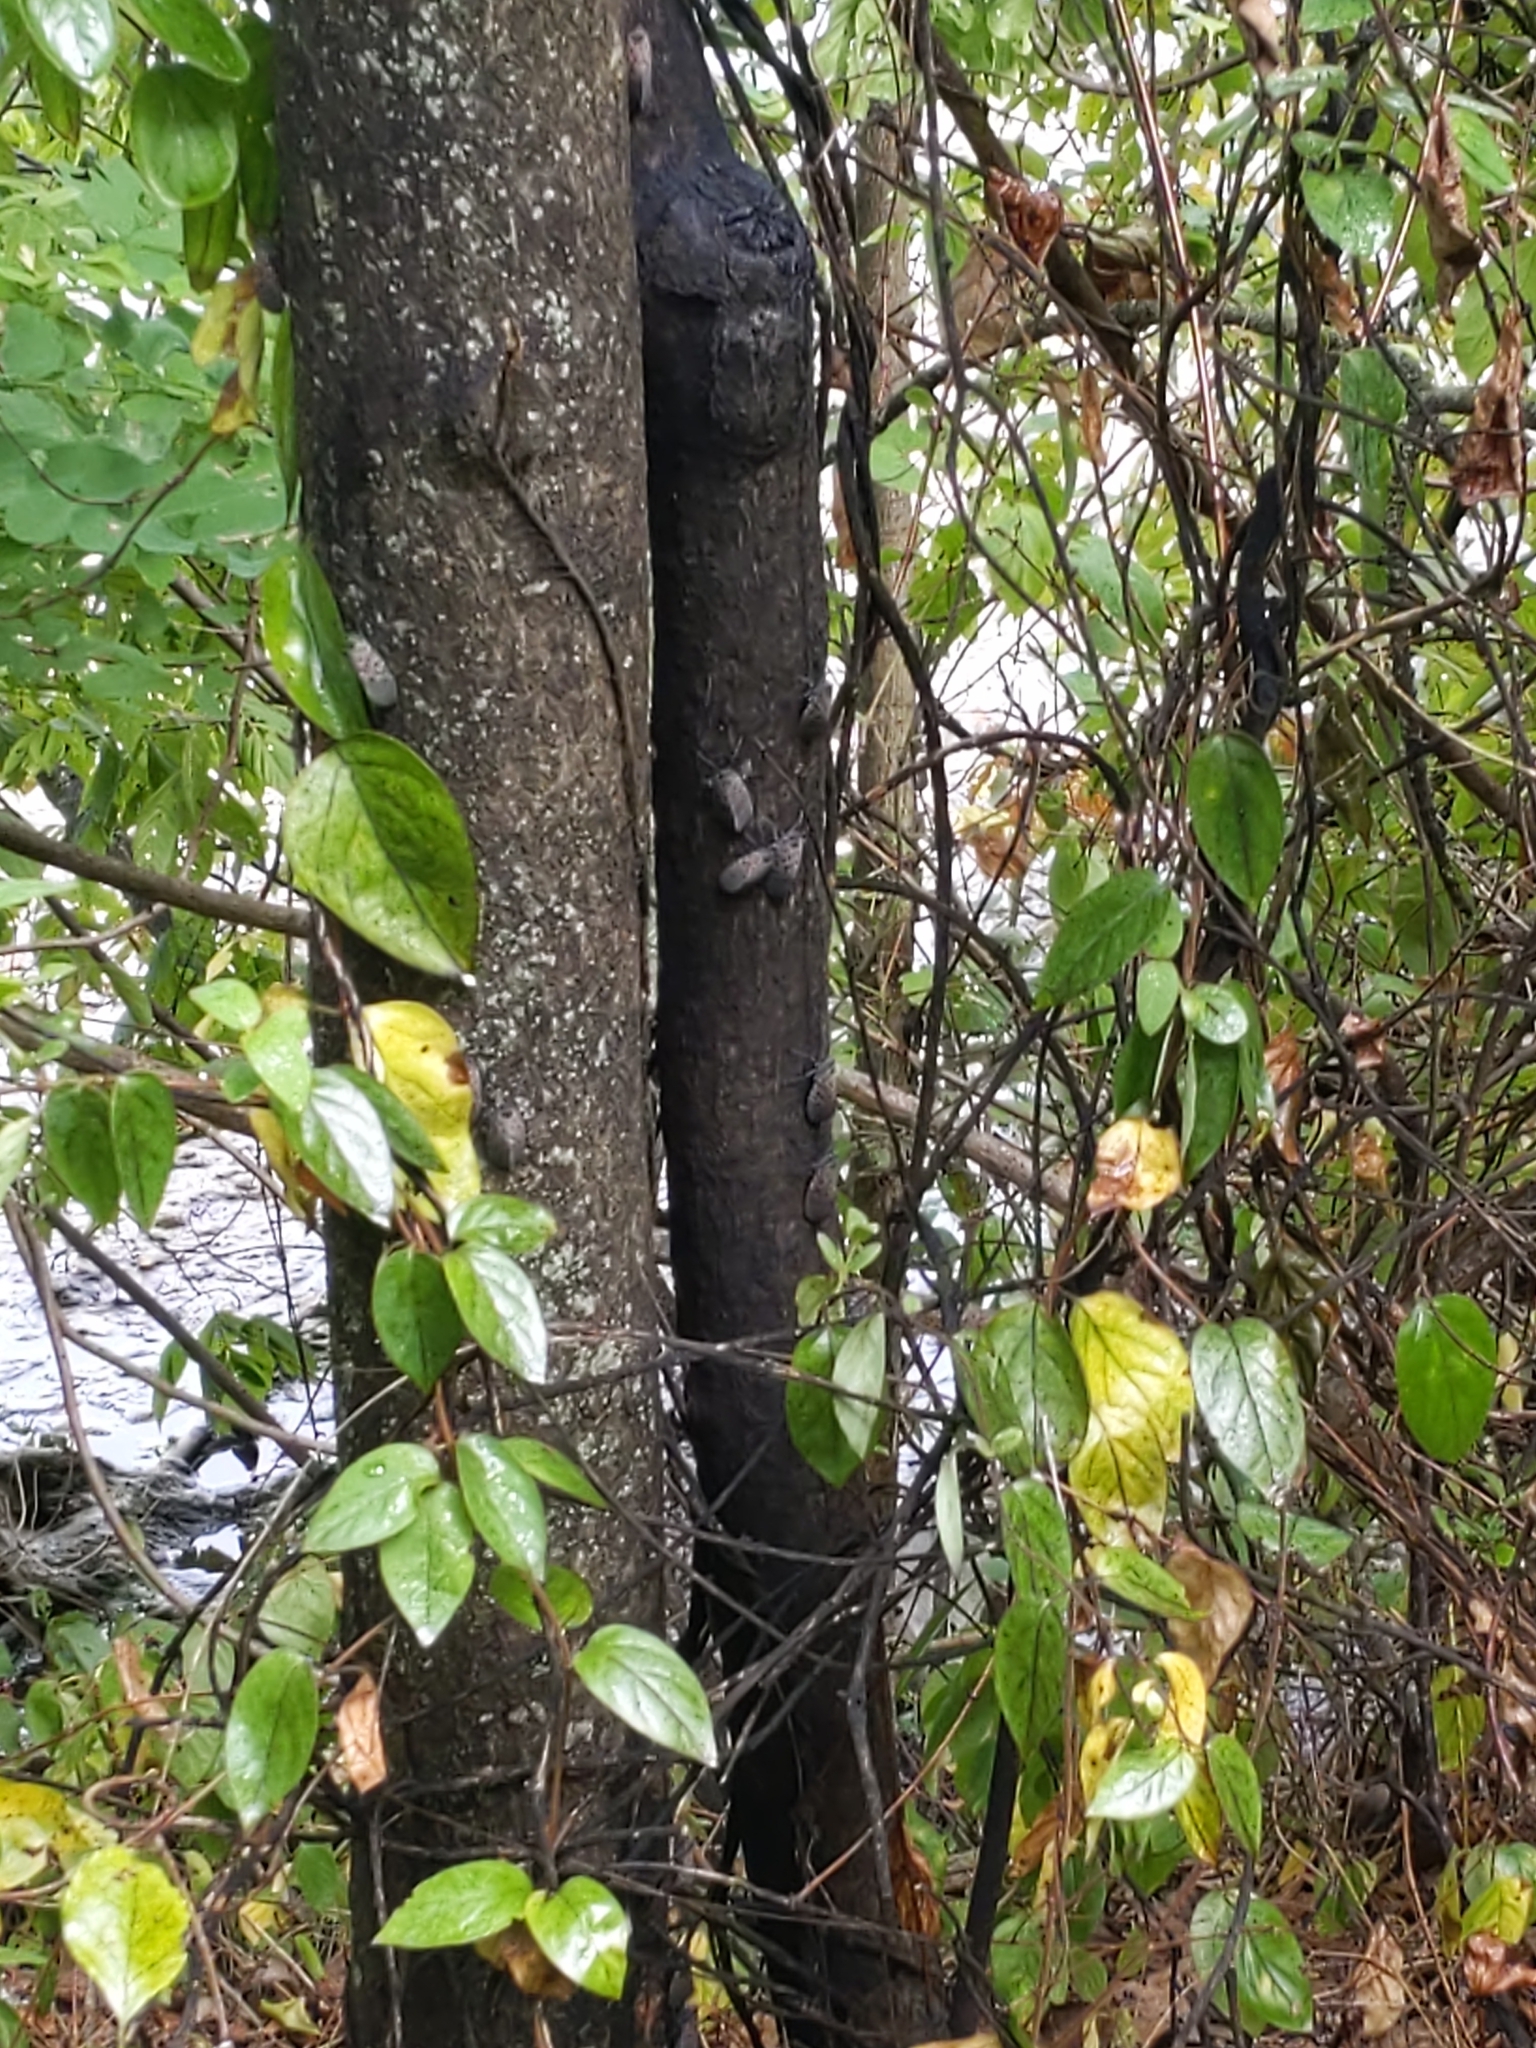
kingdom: Animalia
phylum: Arthropoda
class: Insecta
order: Hemiptera
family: Fulgoridae
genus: Lycorma
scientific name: Lycorma delicatula
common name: Spotted lanternfly
